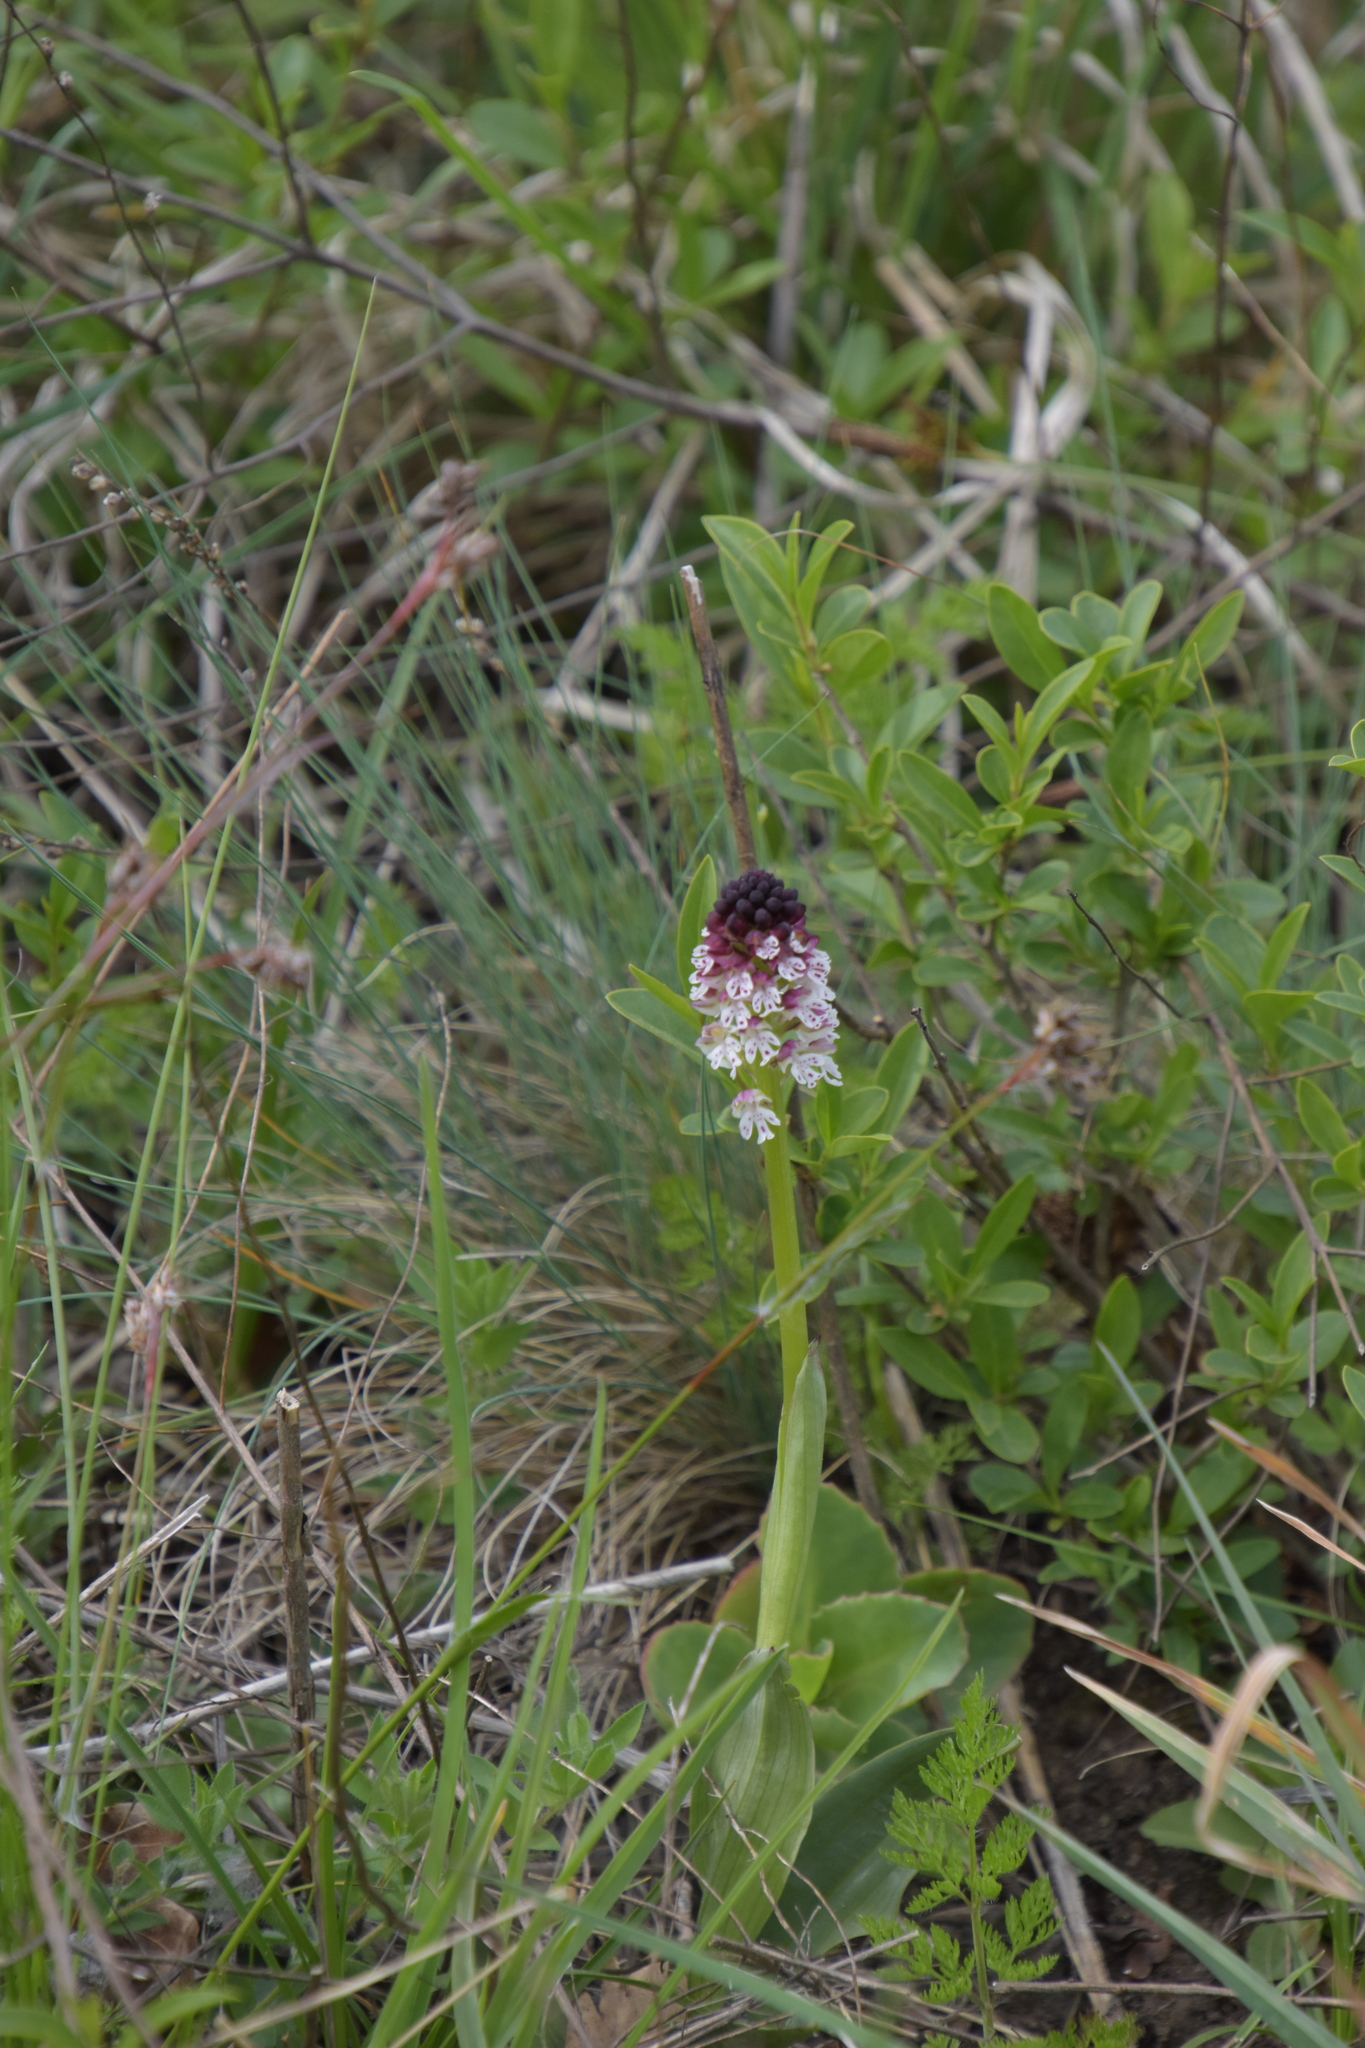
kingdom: Plantae
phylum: Tracheophyta
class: Liliopsida
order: Asparagales
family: Orchidaceae
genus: Neotinea
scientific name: Neotinea ustulata
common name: Burnt orchid
